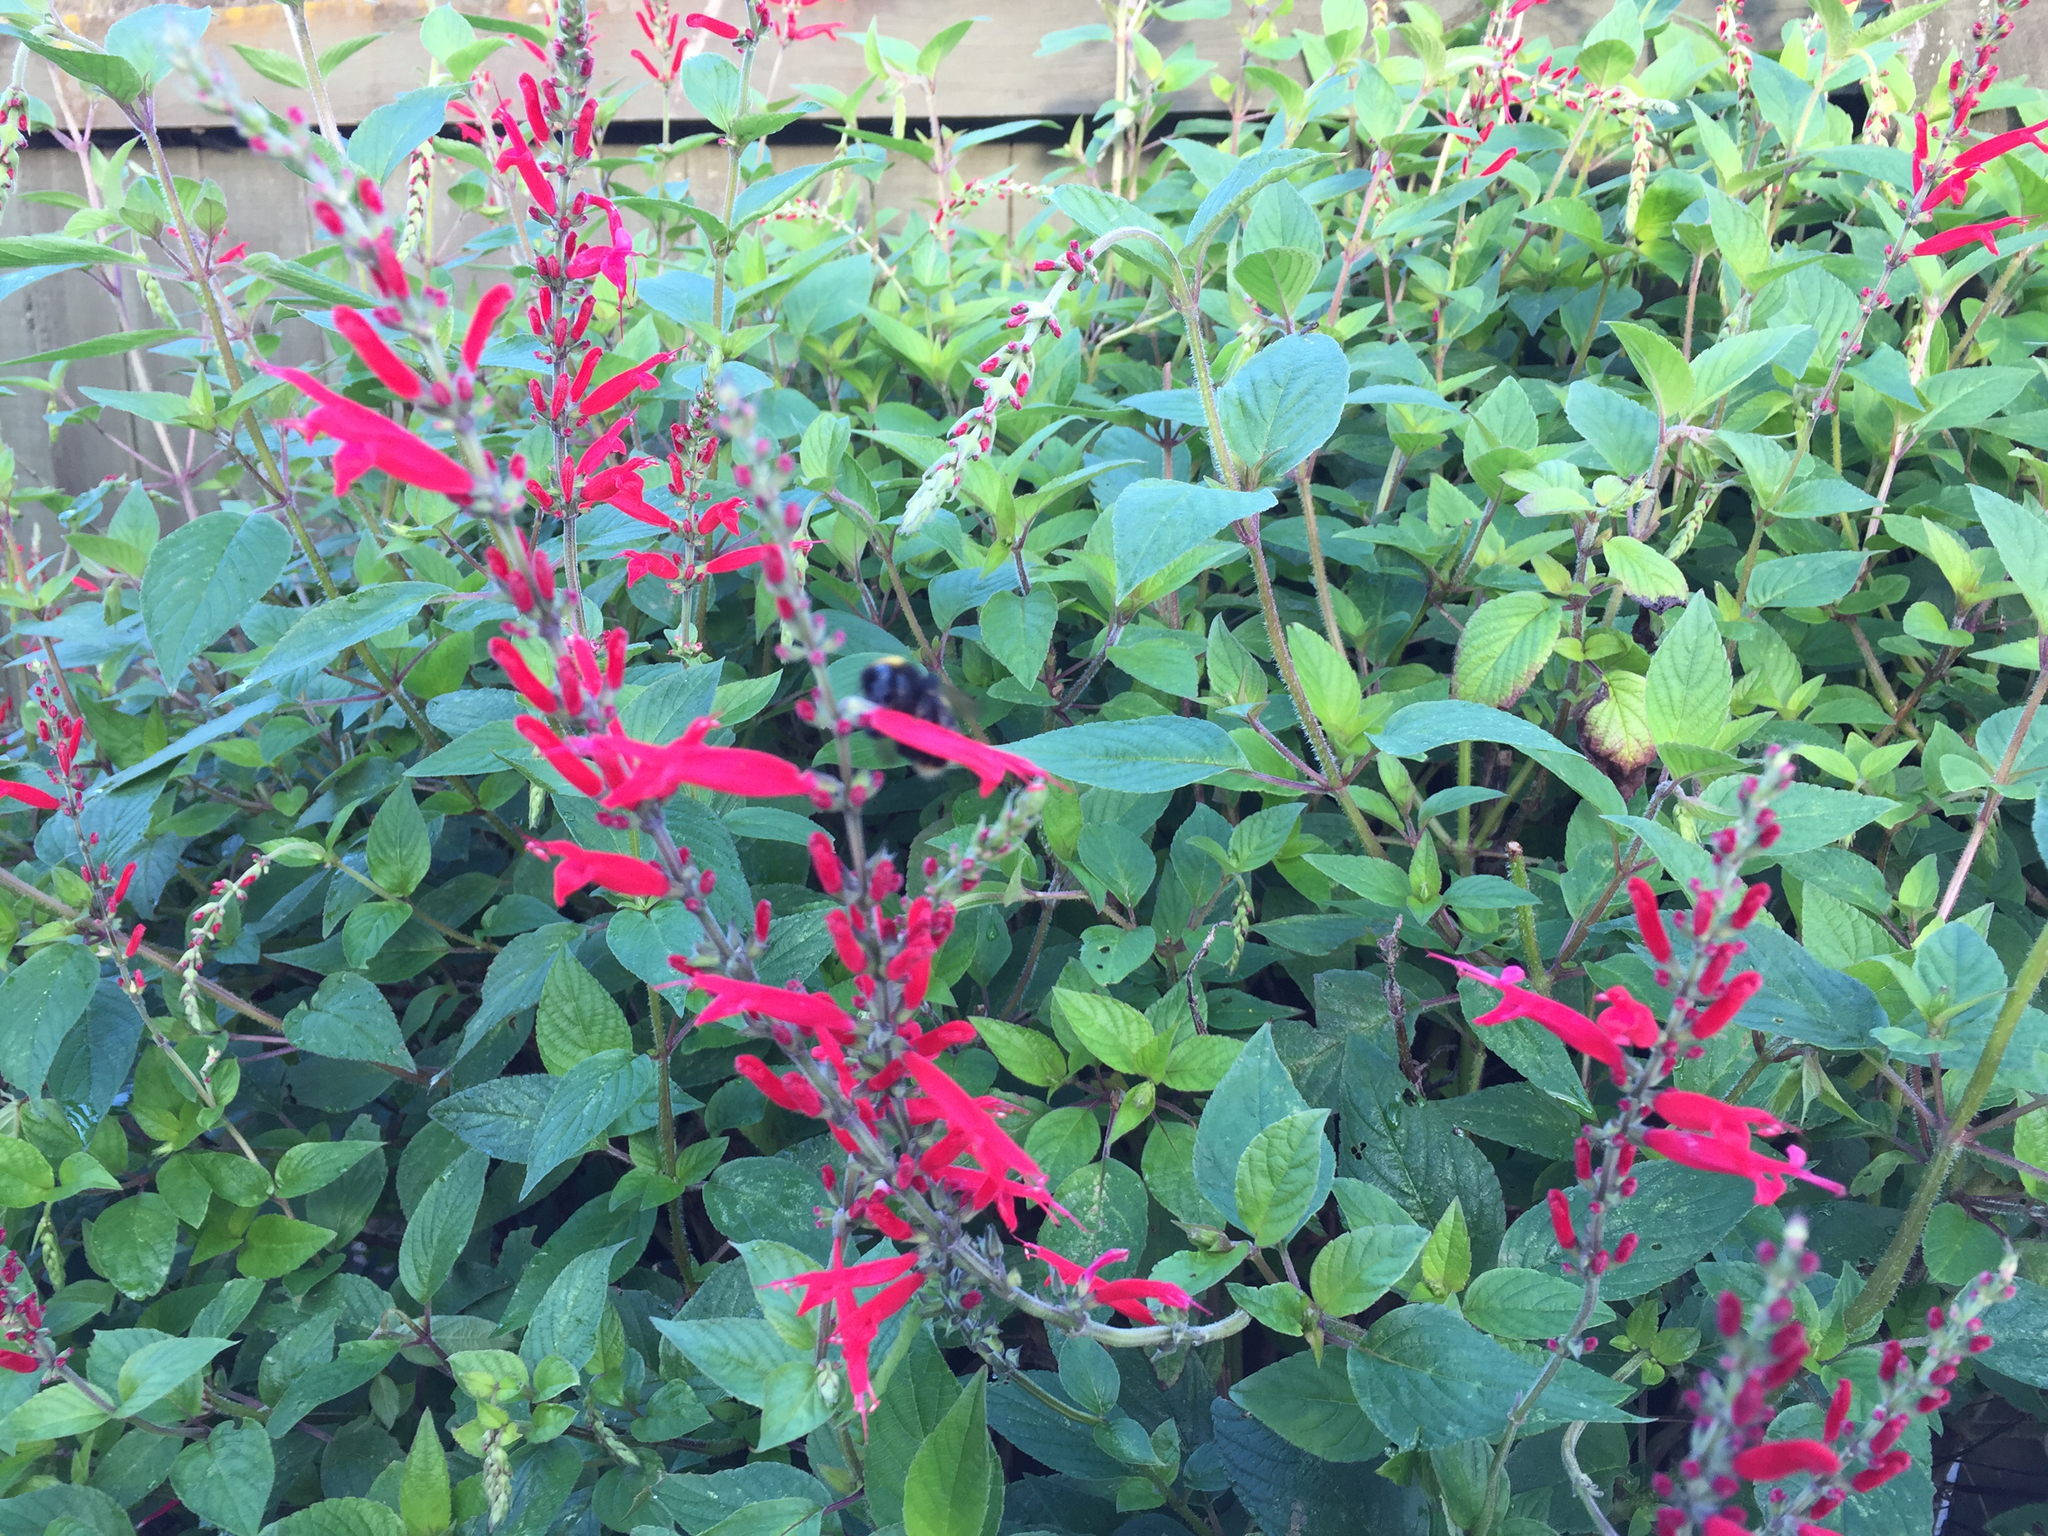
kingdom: Animalia
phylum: Arthropoda
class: Insecta
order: Hymenoptera
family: Apidae
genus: Bombus
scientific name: Bombus terrestris
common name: Buff-tailed bumblebee
